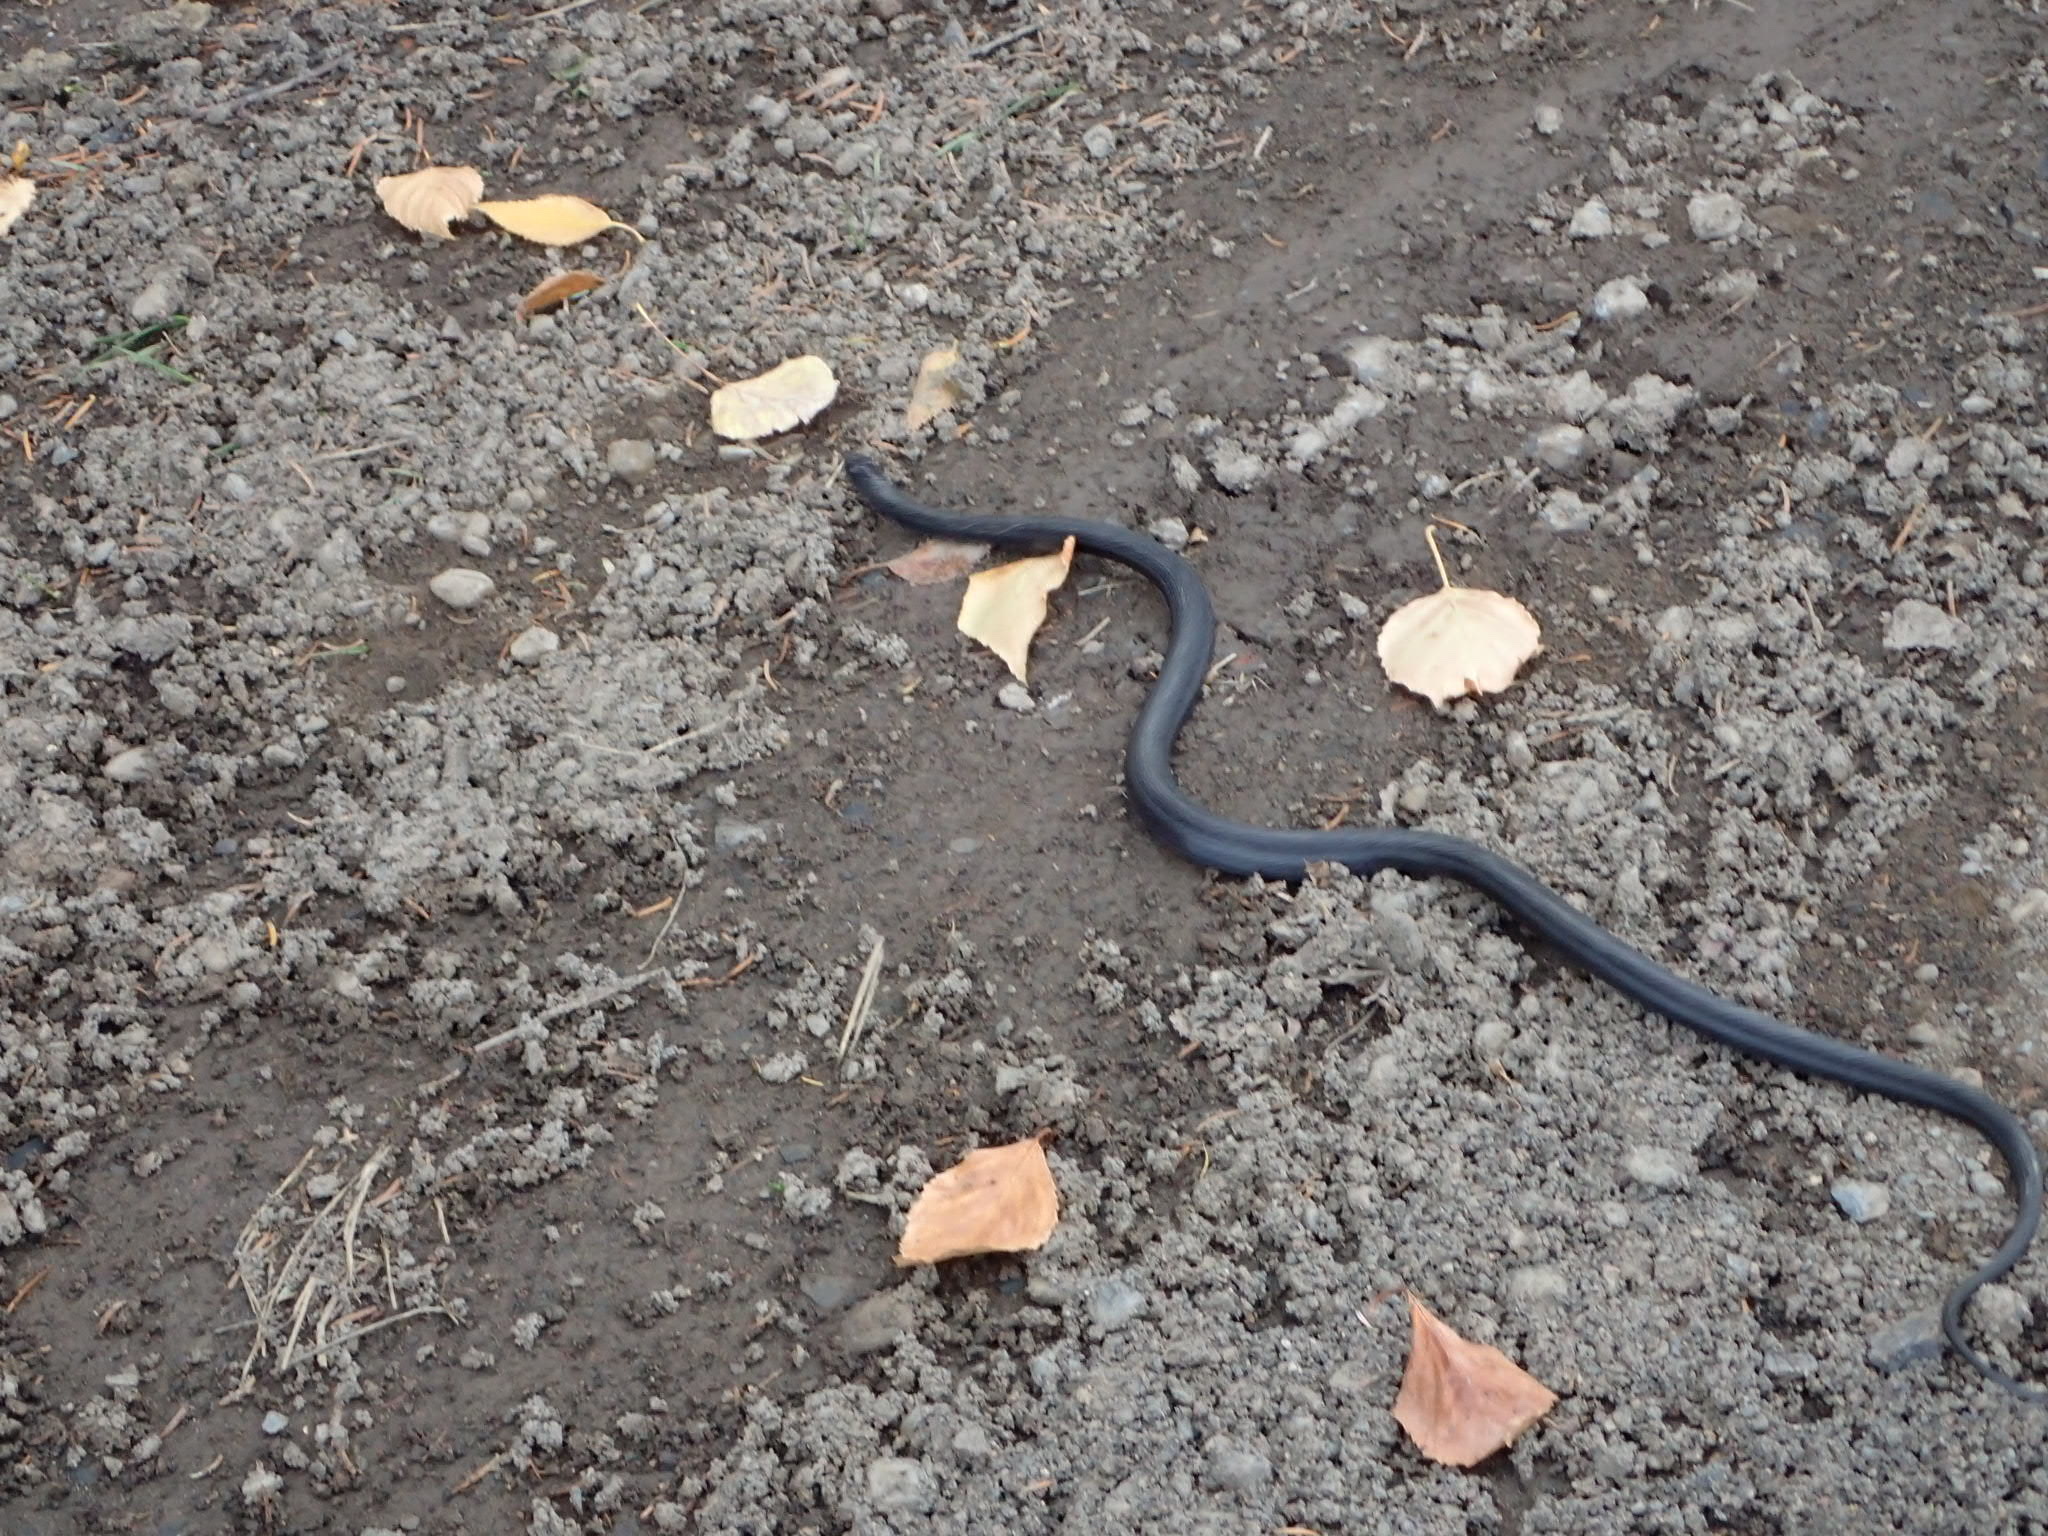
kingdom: Animalia
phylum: Chordata
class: Squamata
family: Colubridae
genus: Thamnophis
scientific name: Thamnophis sirtalis
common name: Common garter snake
